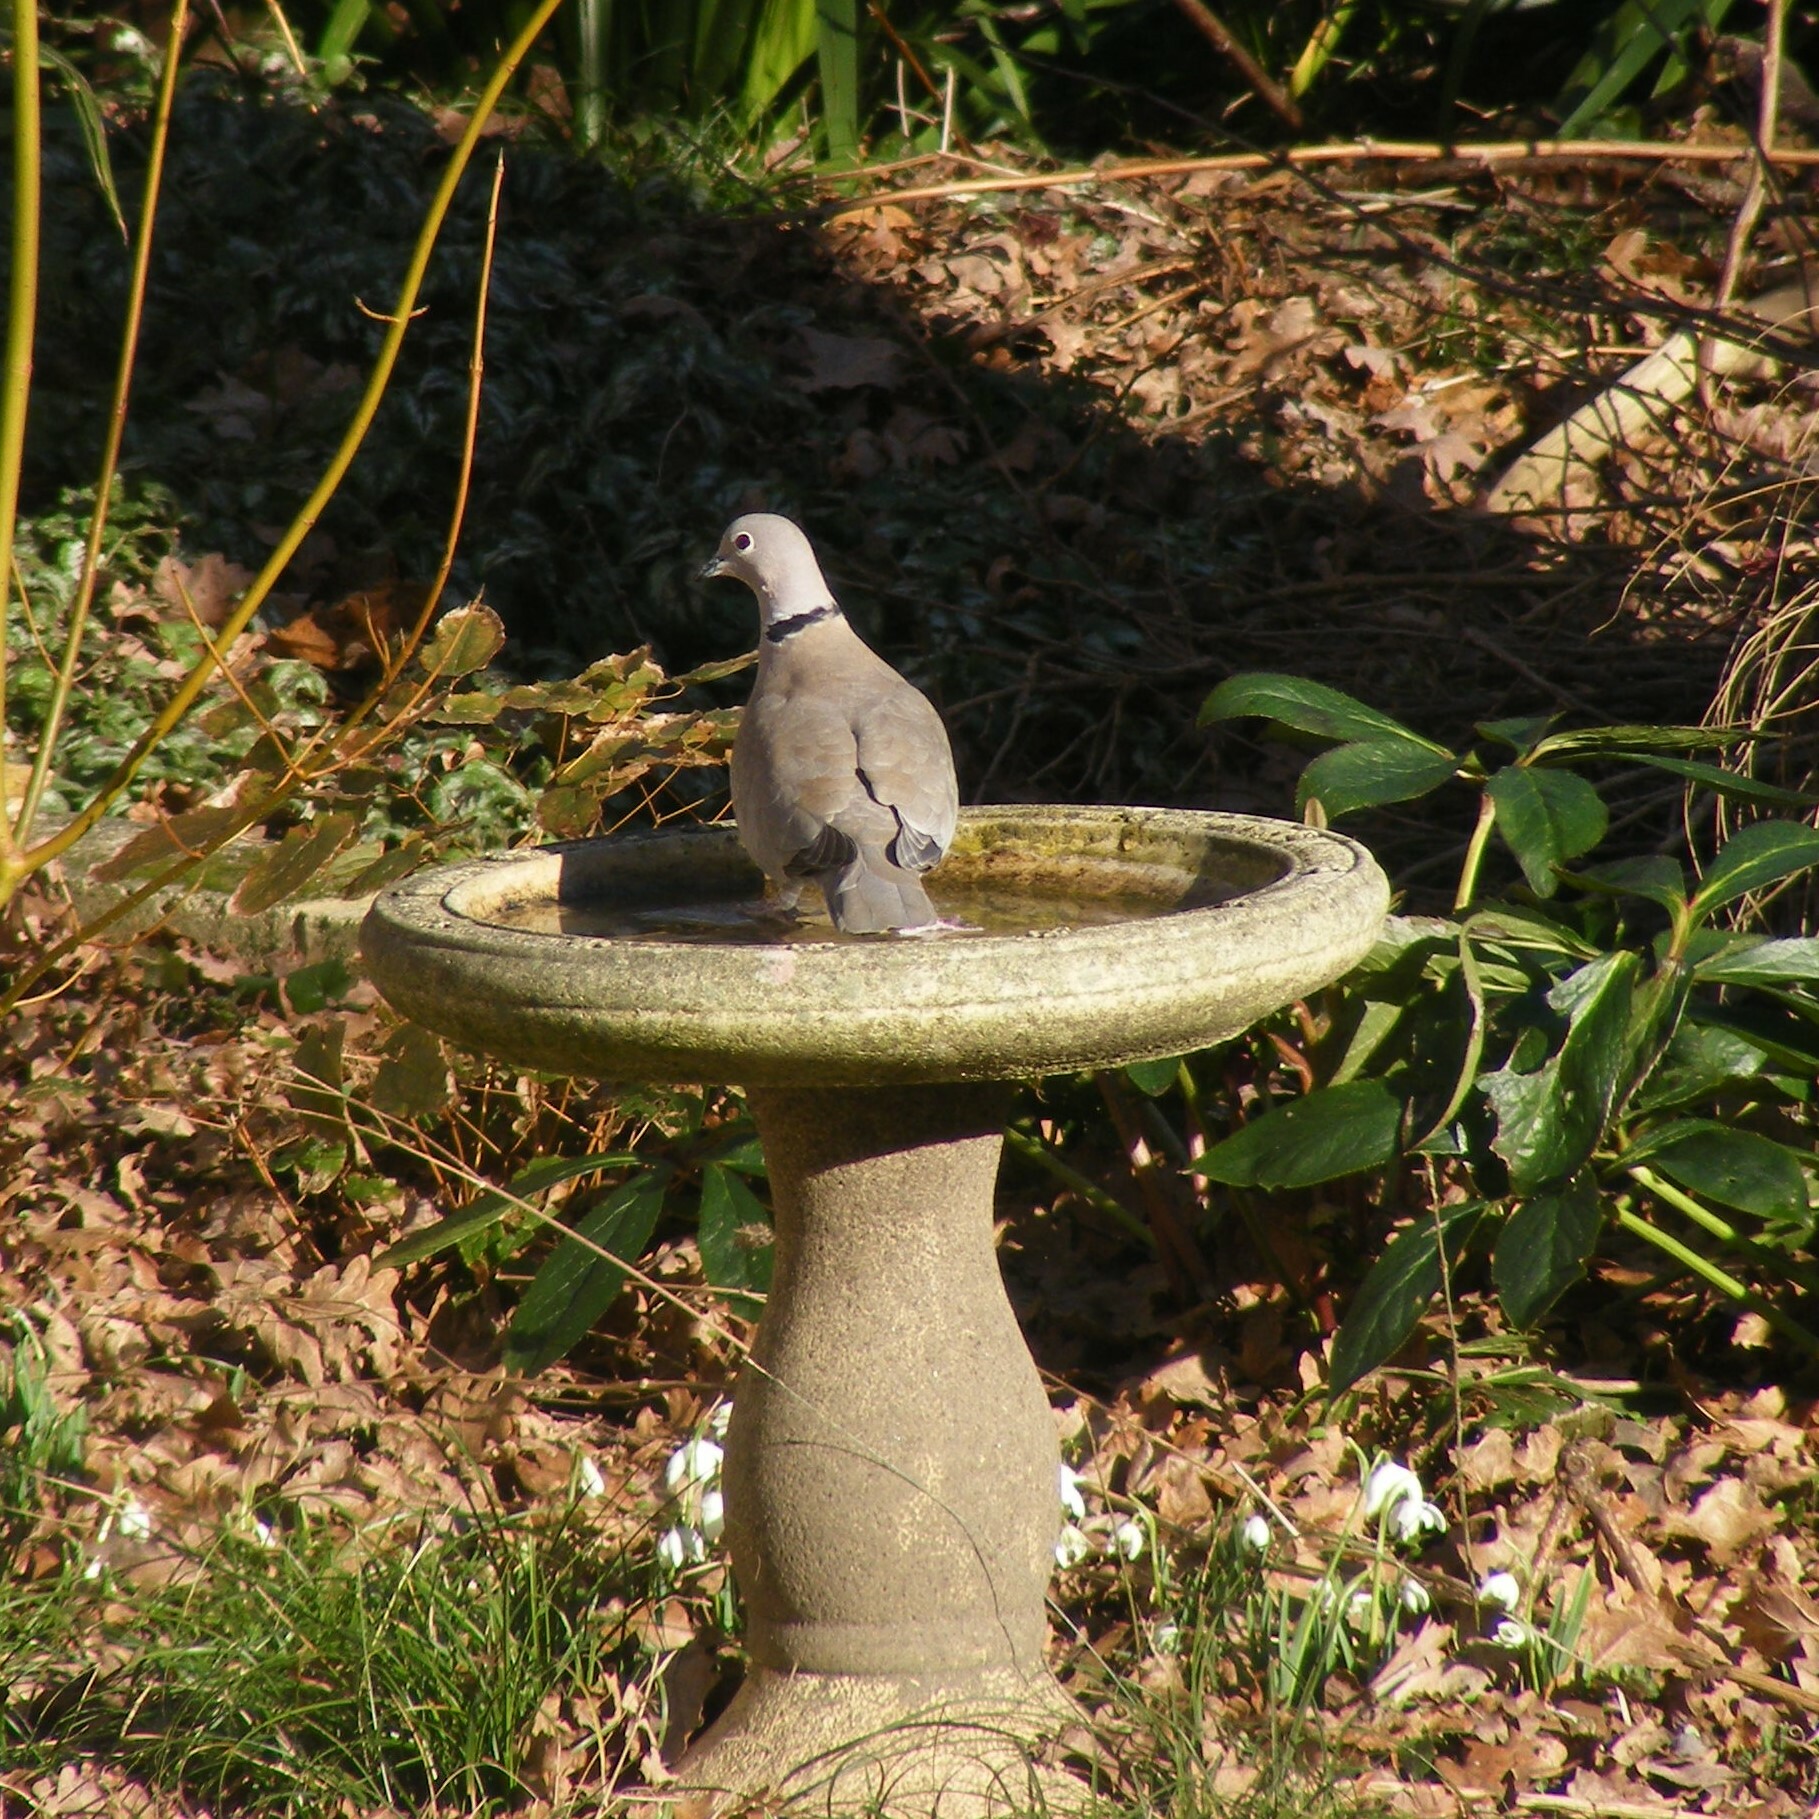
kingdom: Animalia
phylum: Chordata
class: Aves
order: Columbiformes
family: Columbidae
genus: Streptopelia
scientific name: Streptopelia decaocto
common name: Eurasian collared dove
